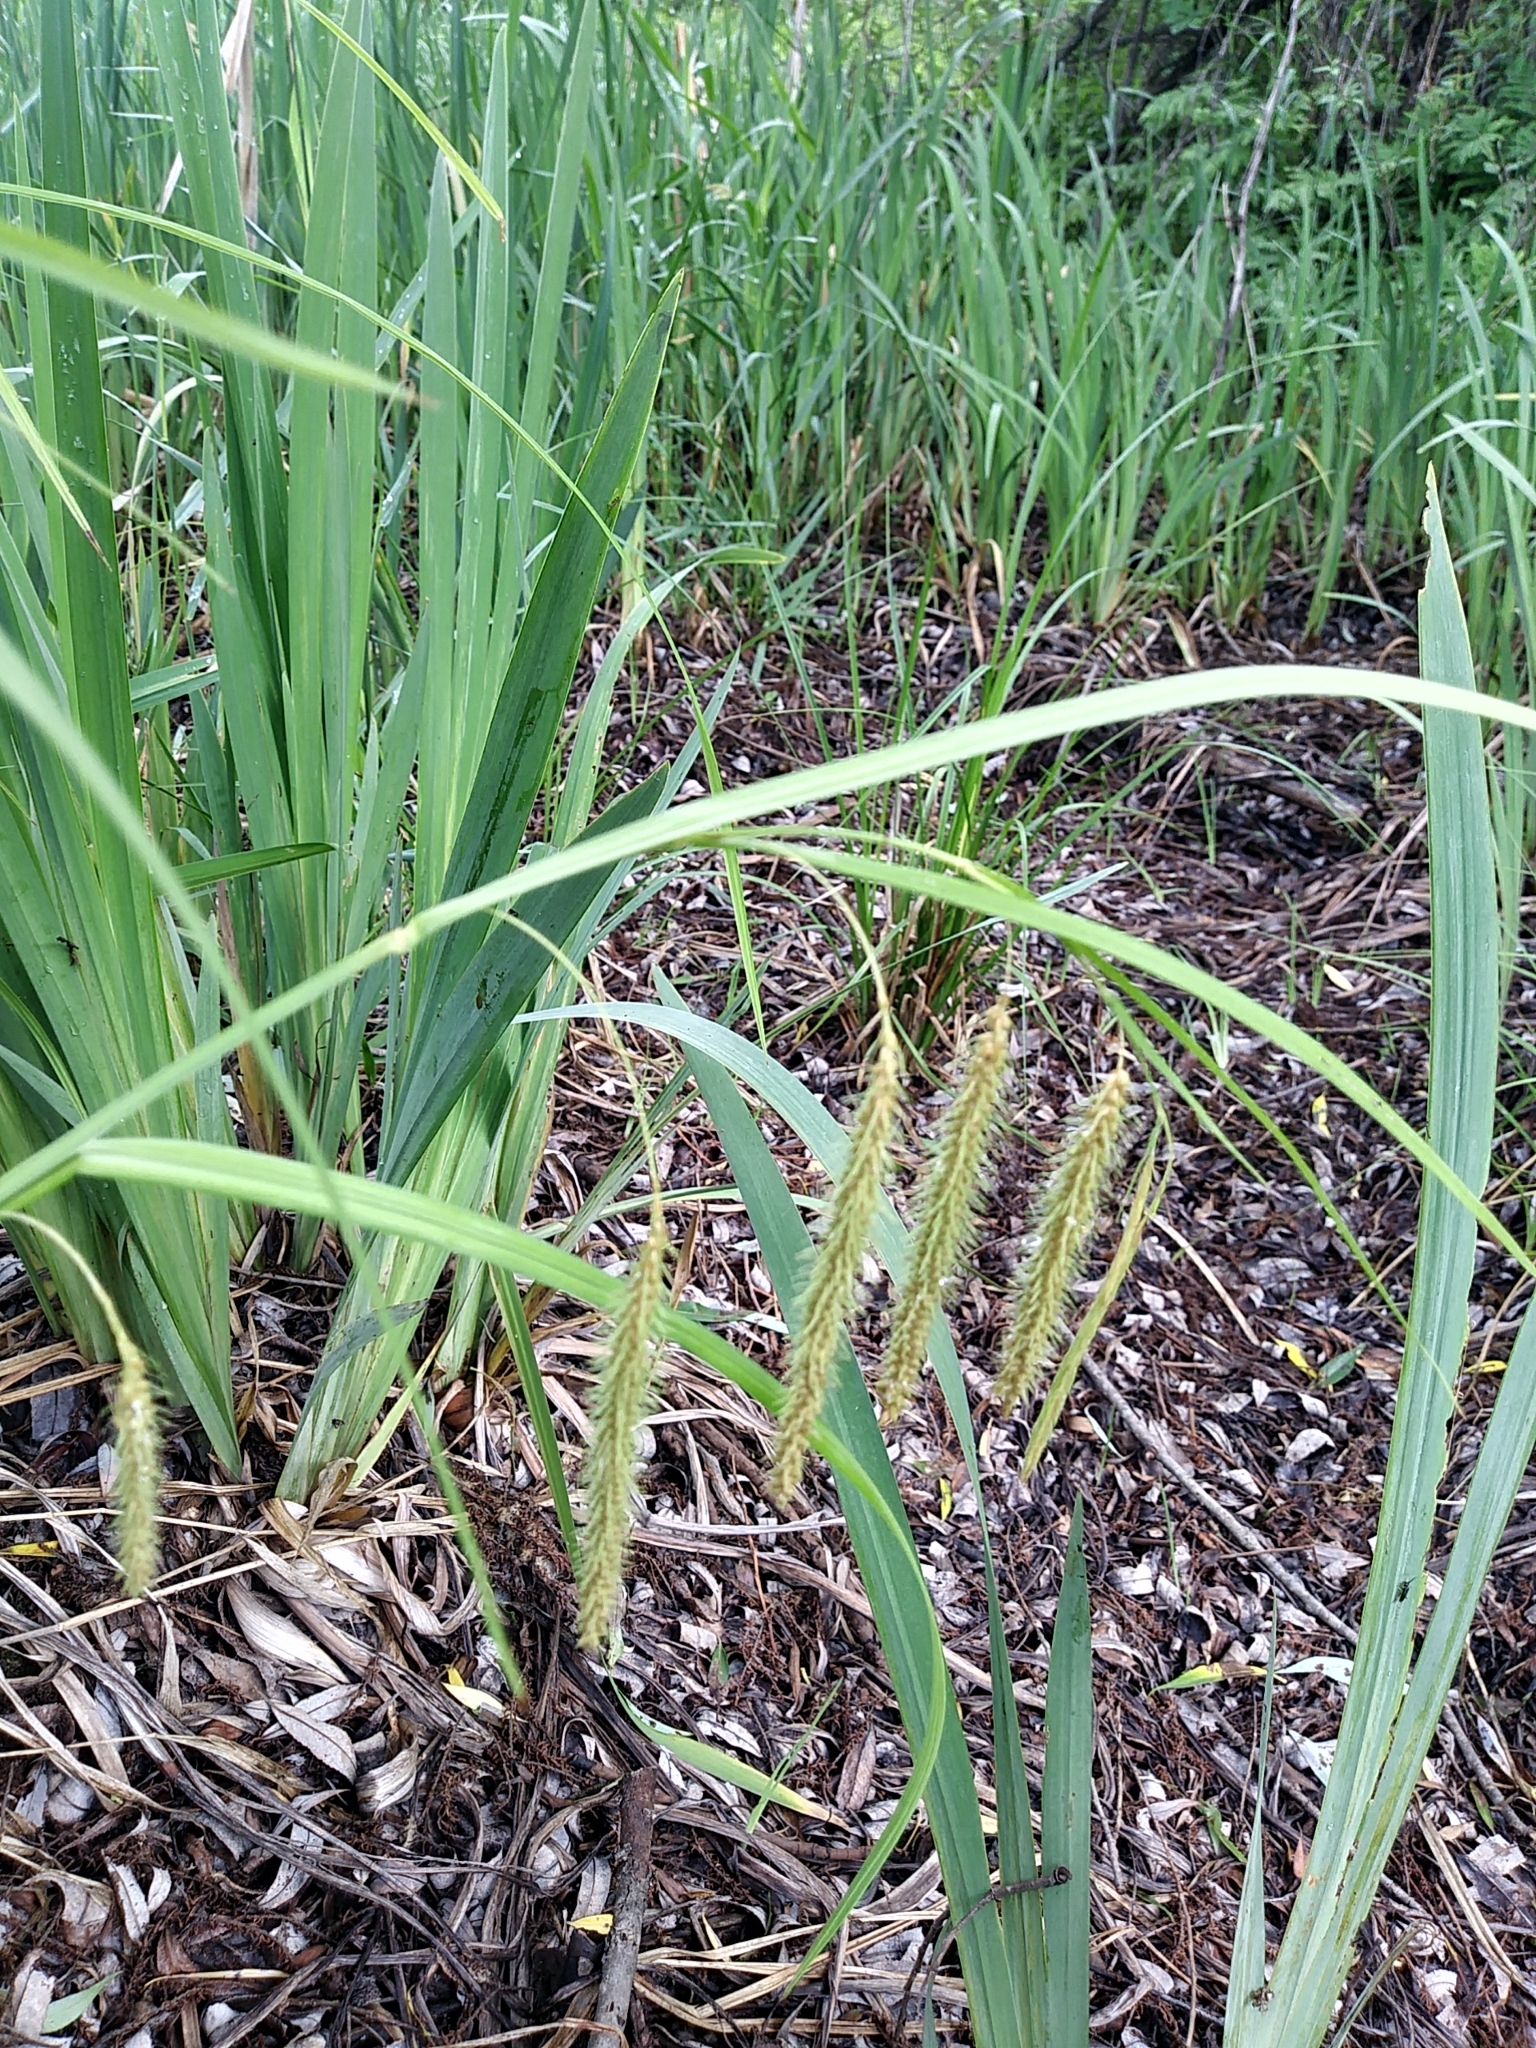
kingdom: Plantae
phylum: Tracheophyta
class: Liliopsida
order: Poales
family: Cyperaceae
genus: Carex
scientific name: Carex gynandra
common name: Nodding sedge
